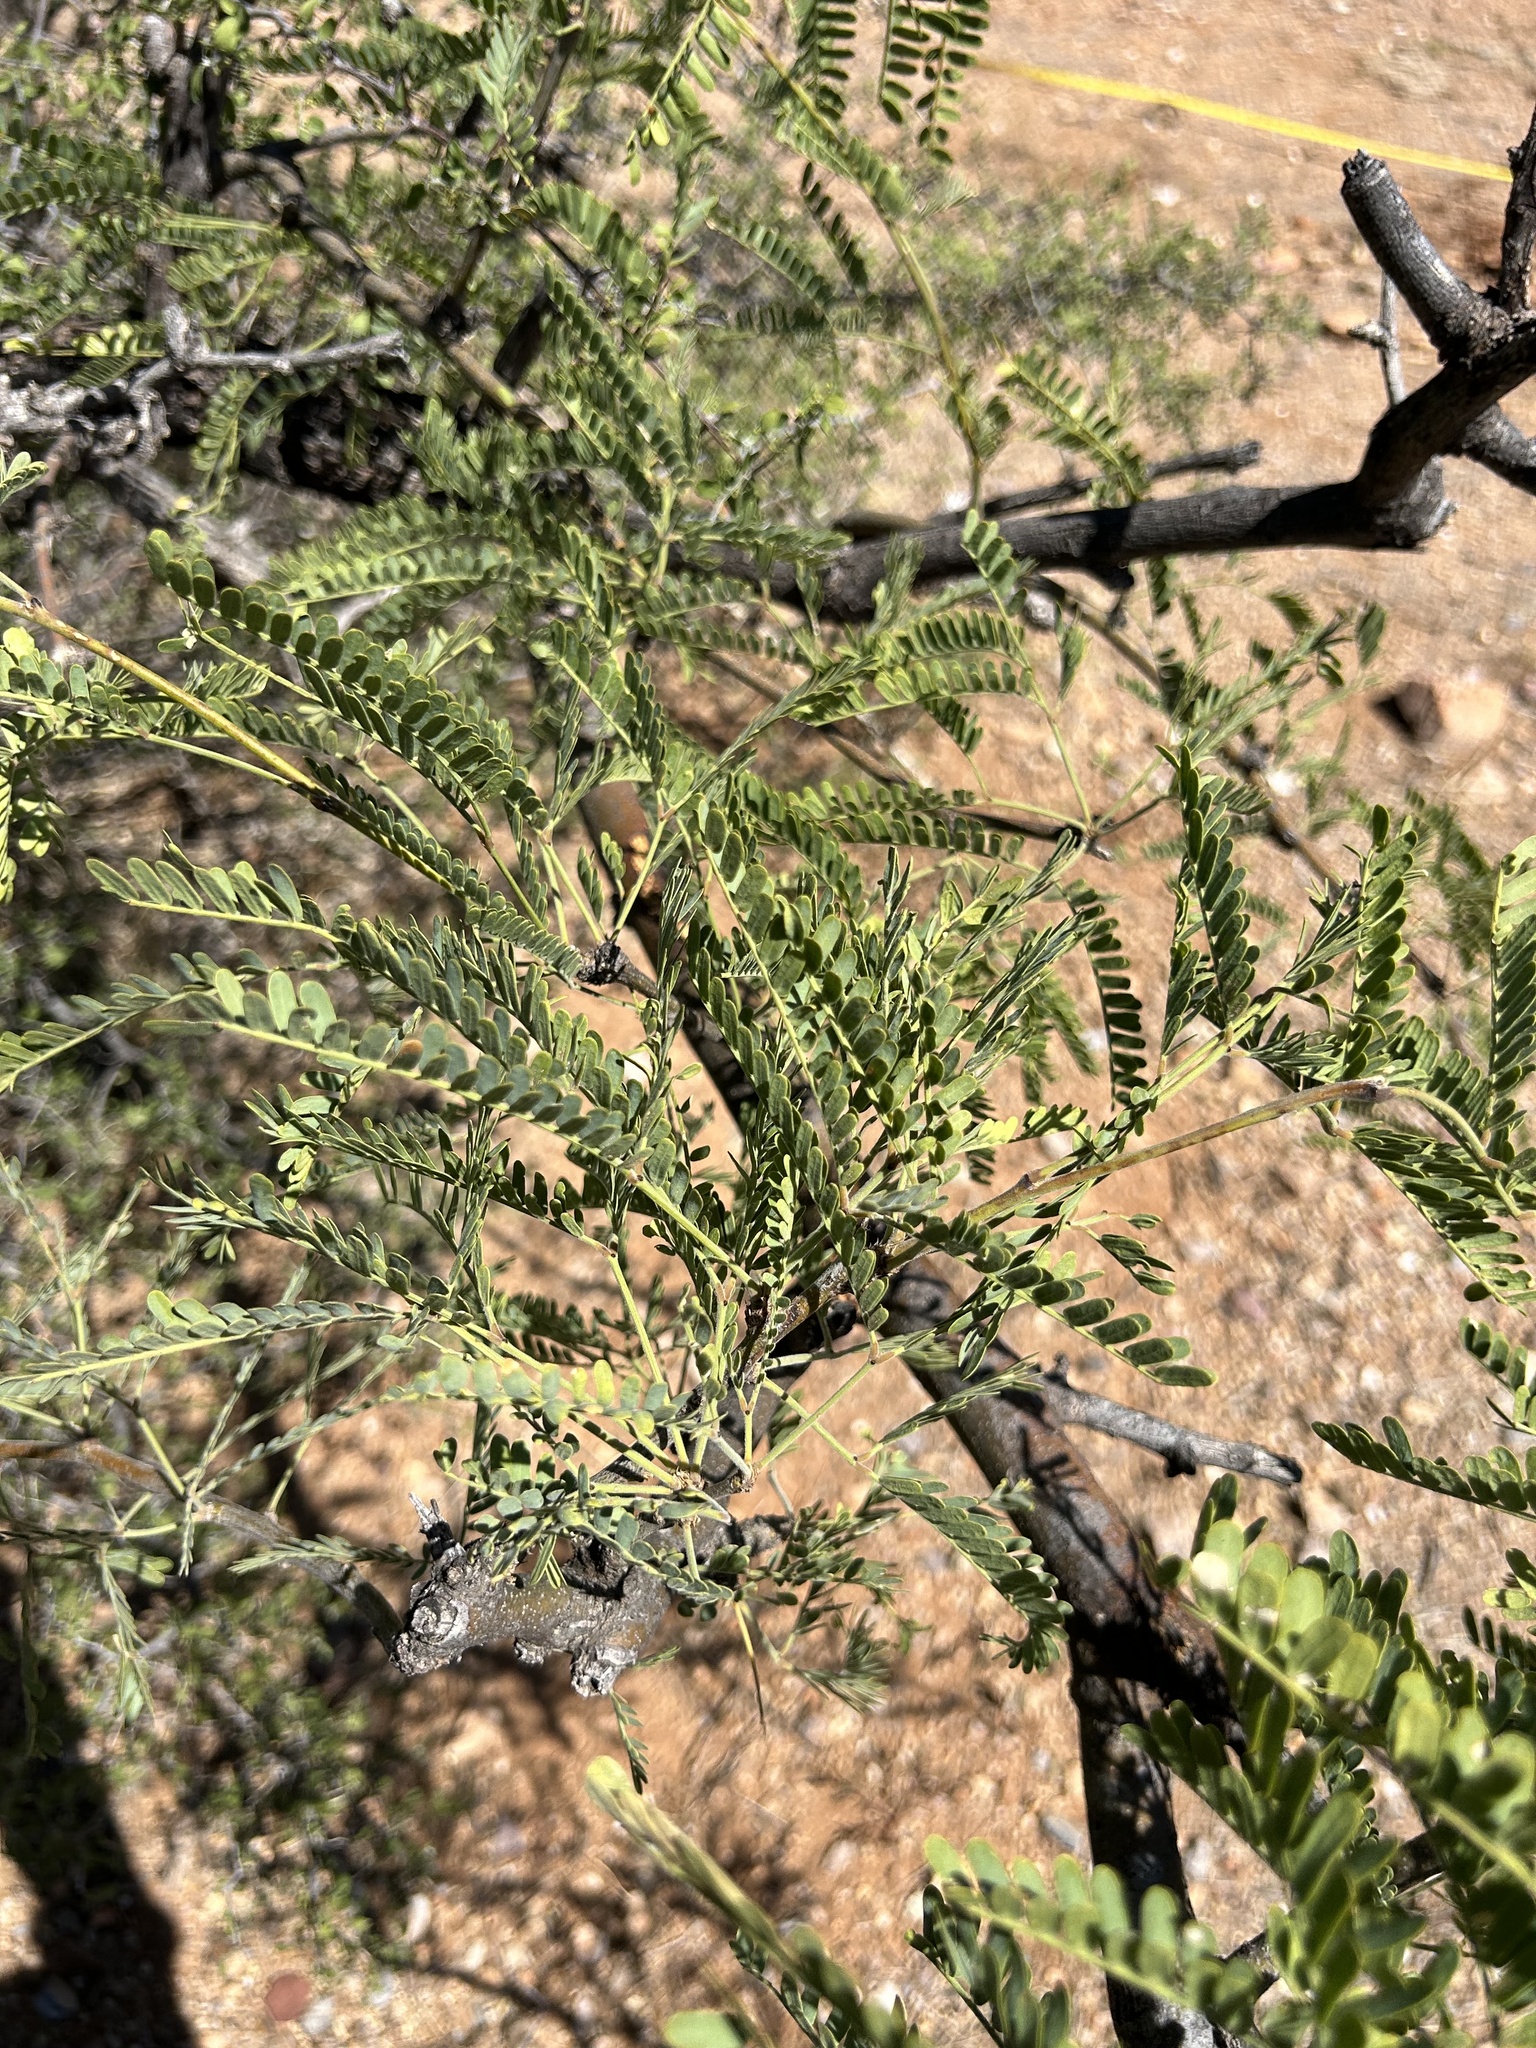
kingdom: Plantae
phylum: Tracheophyta
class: Magnoliopsida
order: Fabales
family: Fabaceae
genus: Prosopis
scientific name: Prosopis velutina
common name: Velvet mesquite
